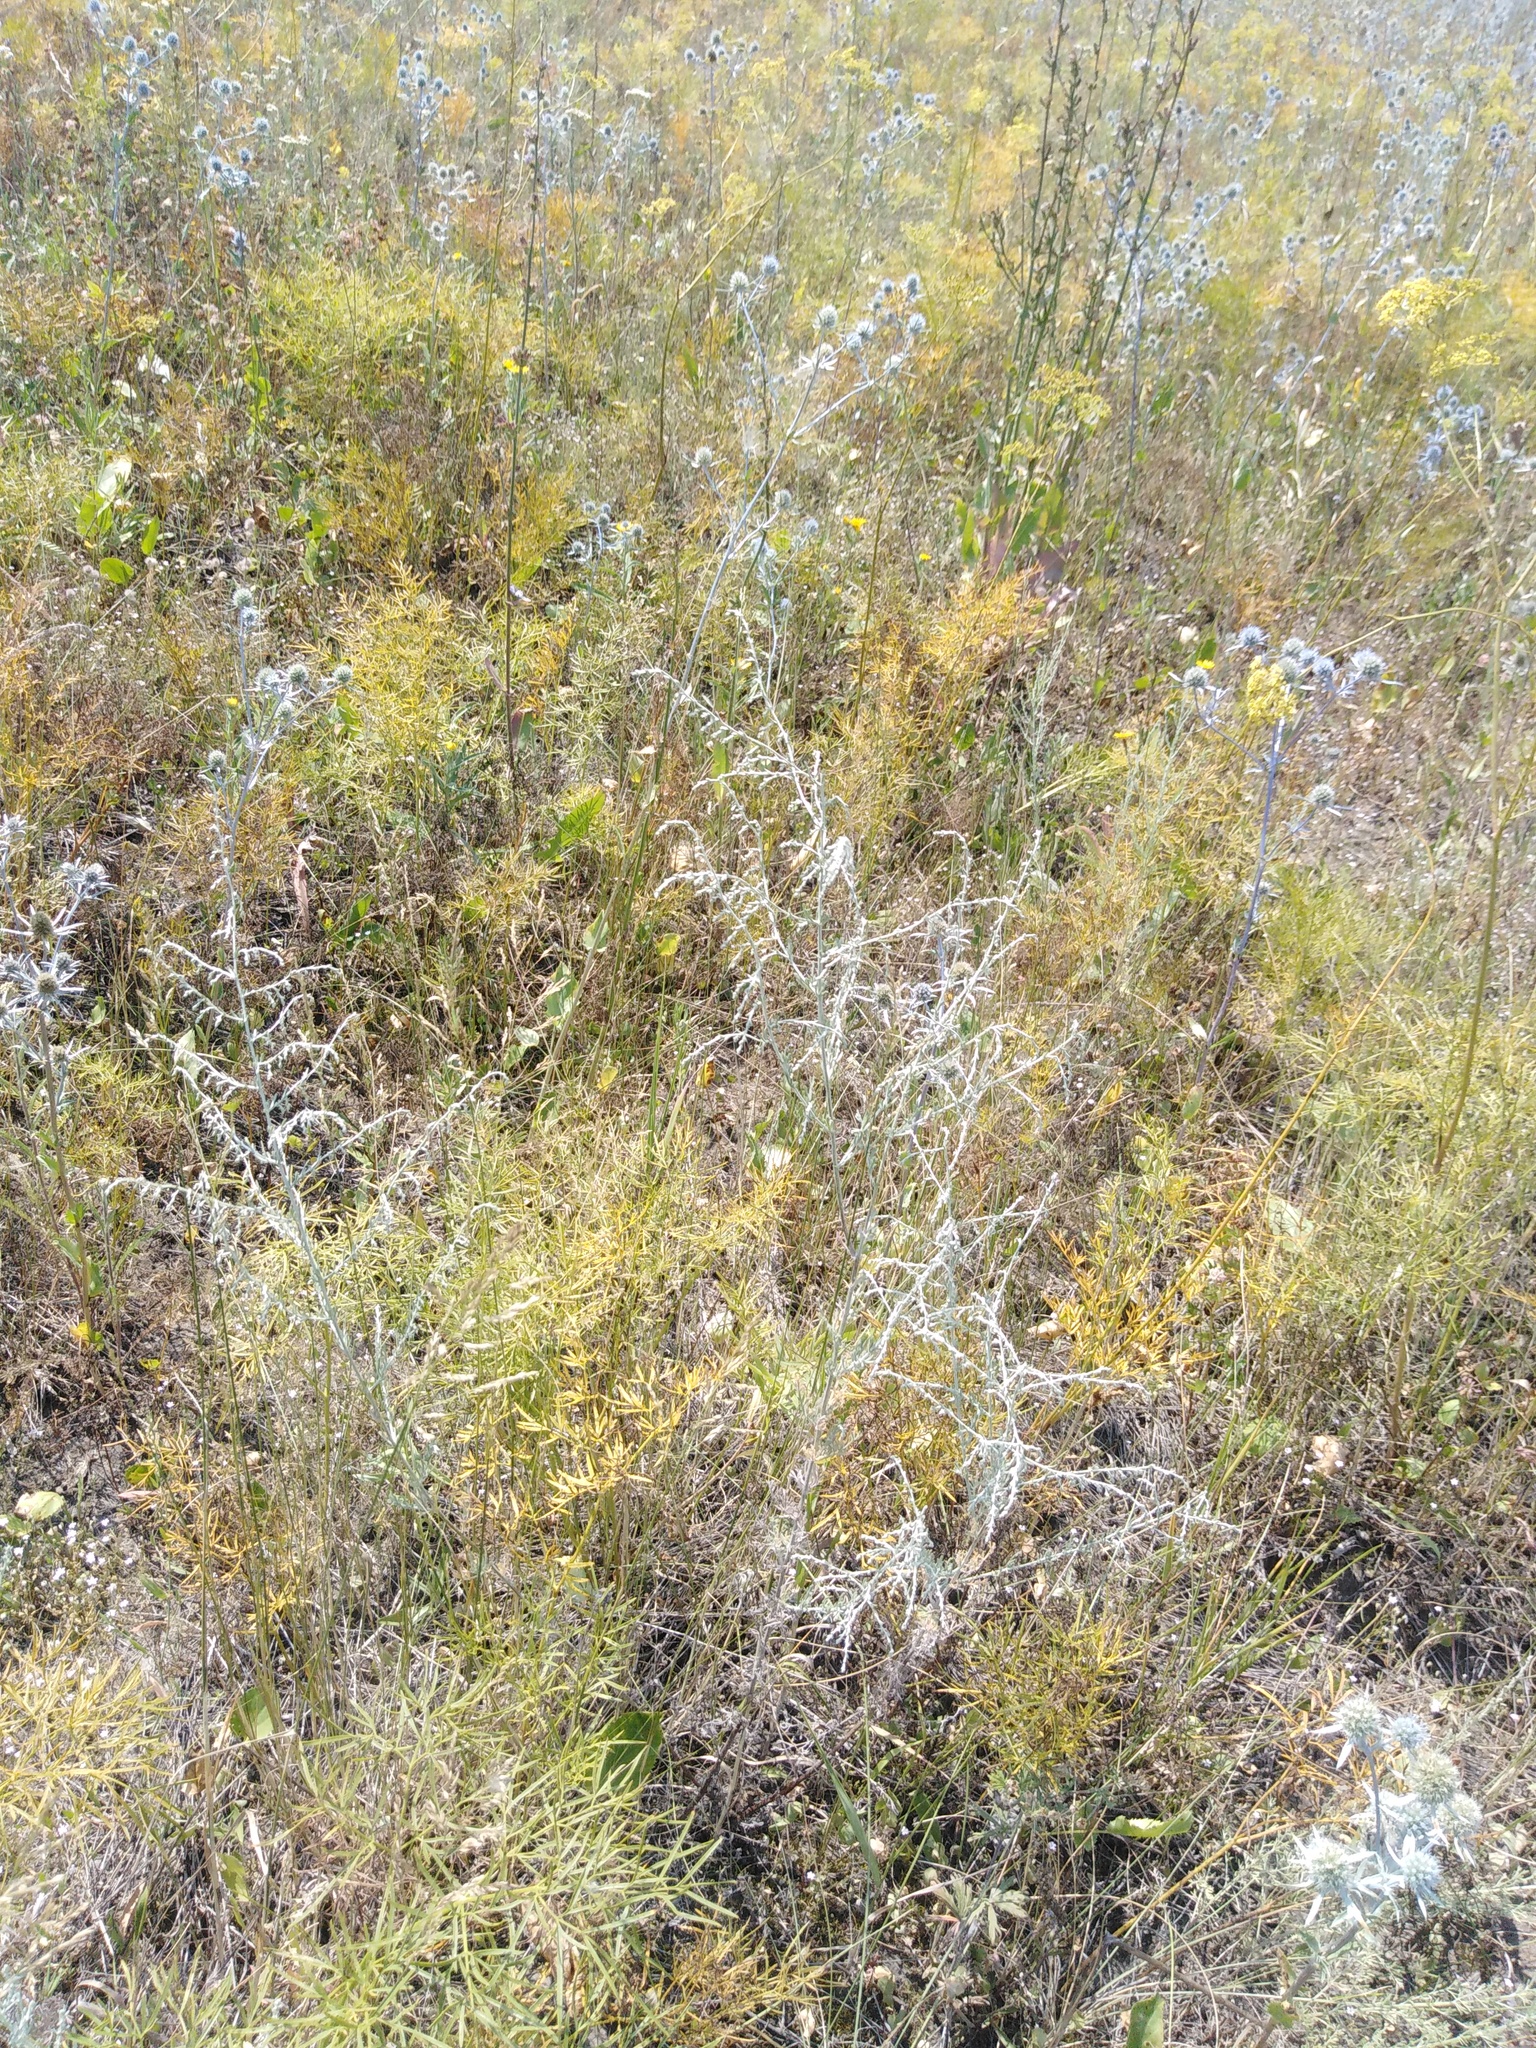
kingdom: Plantae
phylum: Tracheophyta
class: Magnoliopsida
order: Asterales
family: Asteraceae
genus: Artemisia
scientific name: Artemisia santonicum
